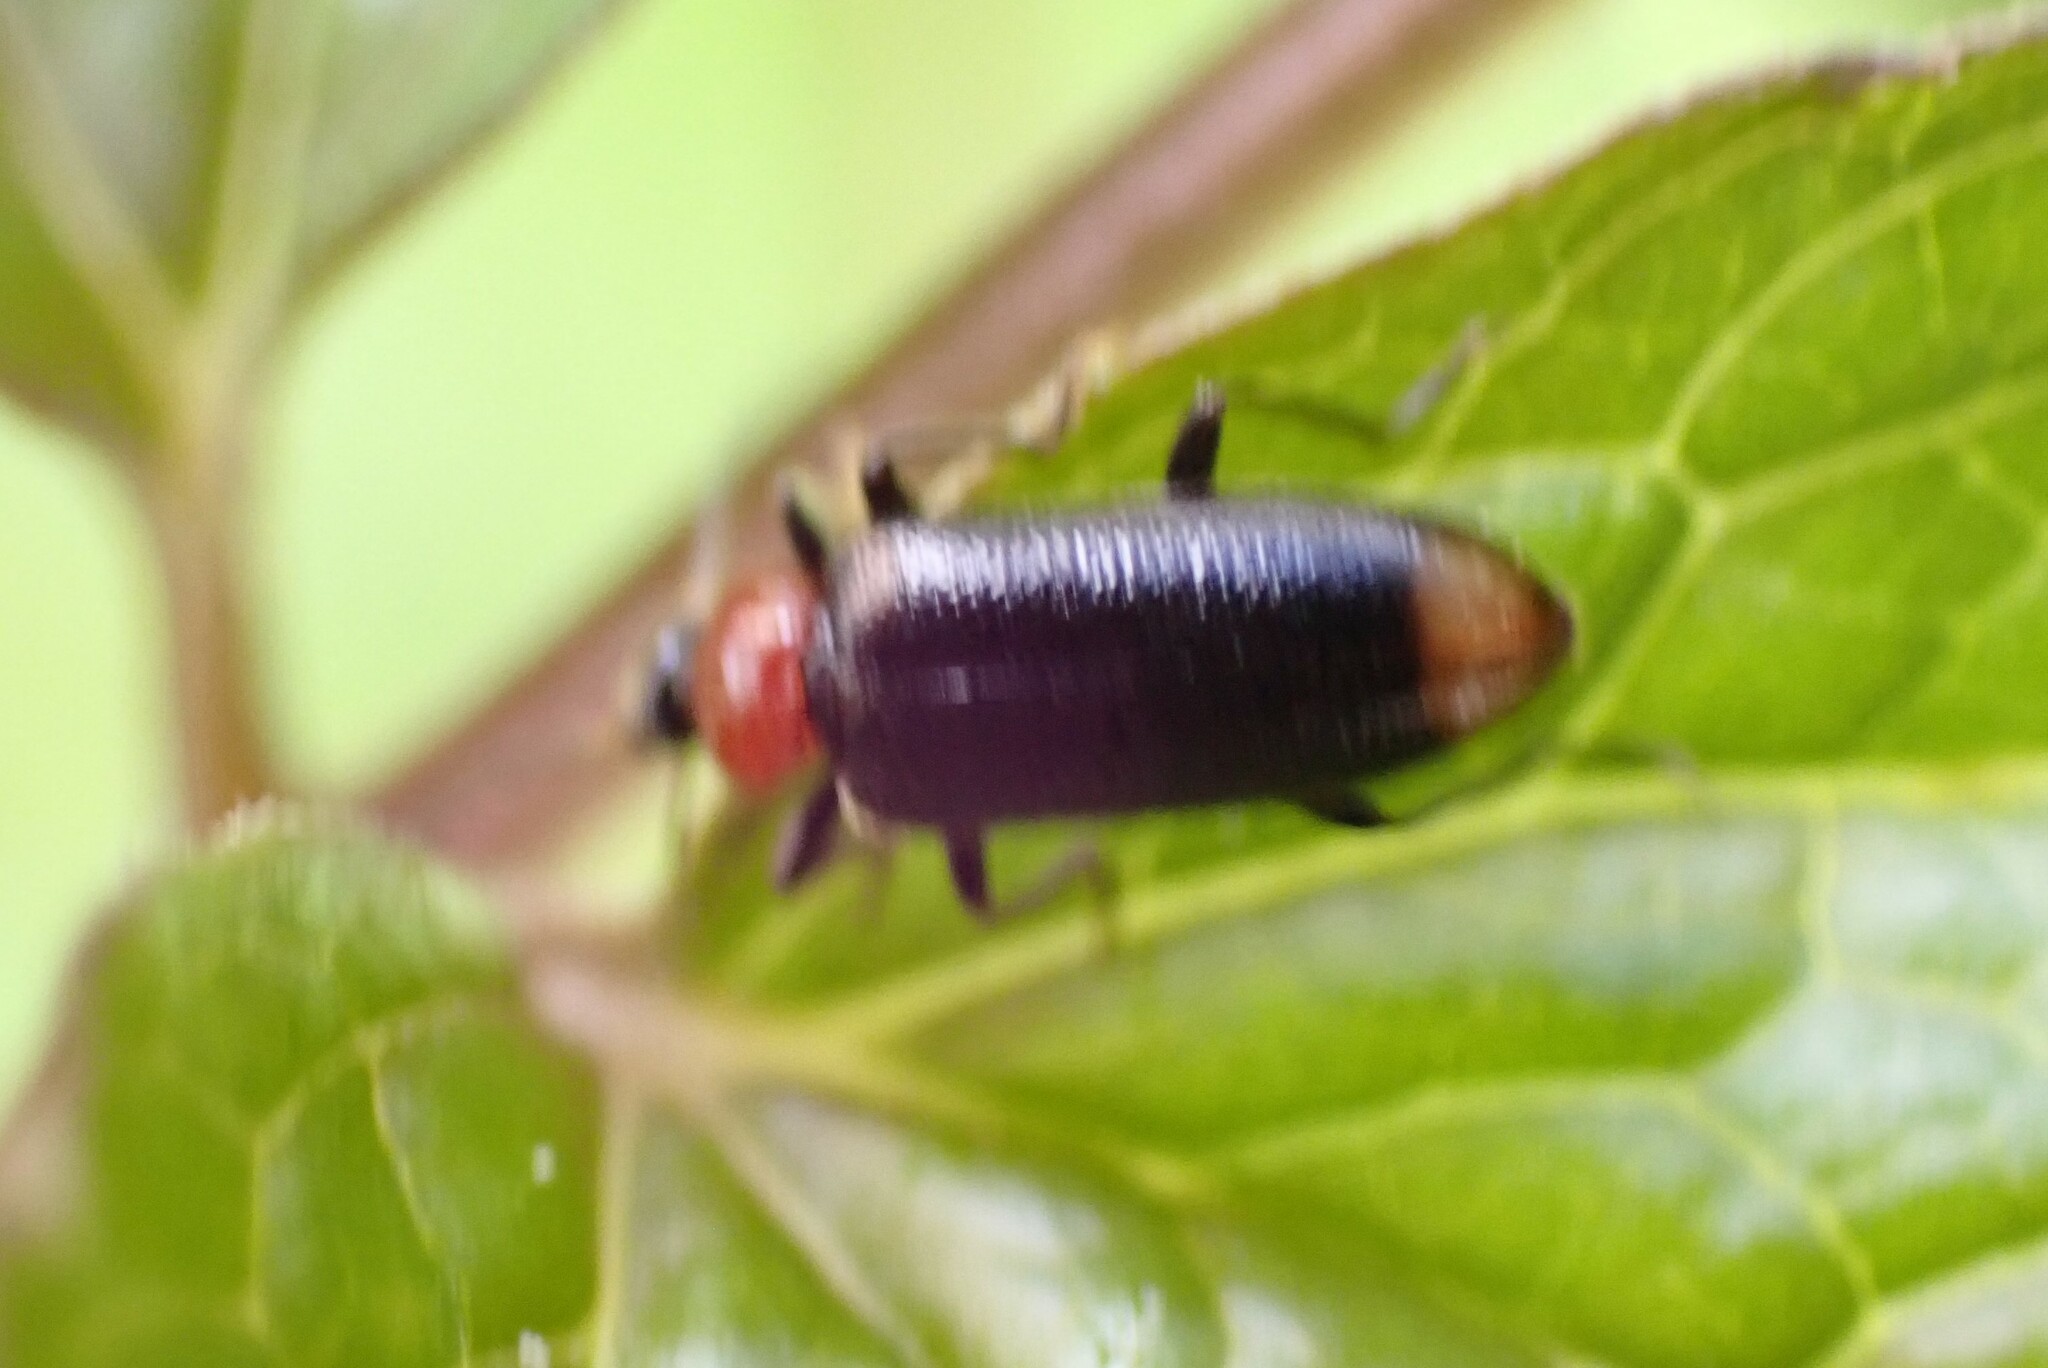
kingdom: Animalia
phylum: Arthropoda
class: Insecta
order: Coleoptera
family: Pyrochroidae
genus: Pedilus
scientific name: Pedilus terminalis
